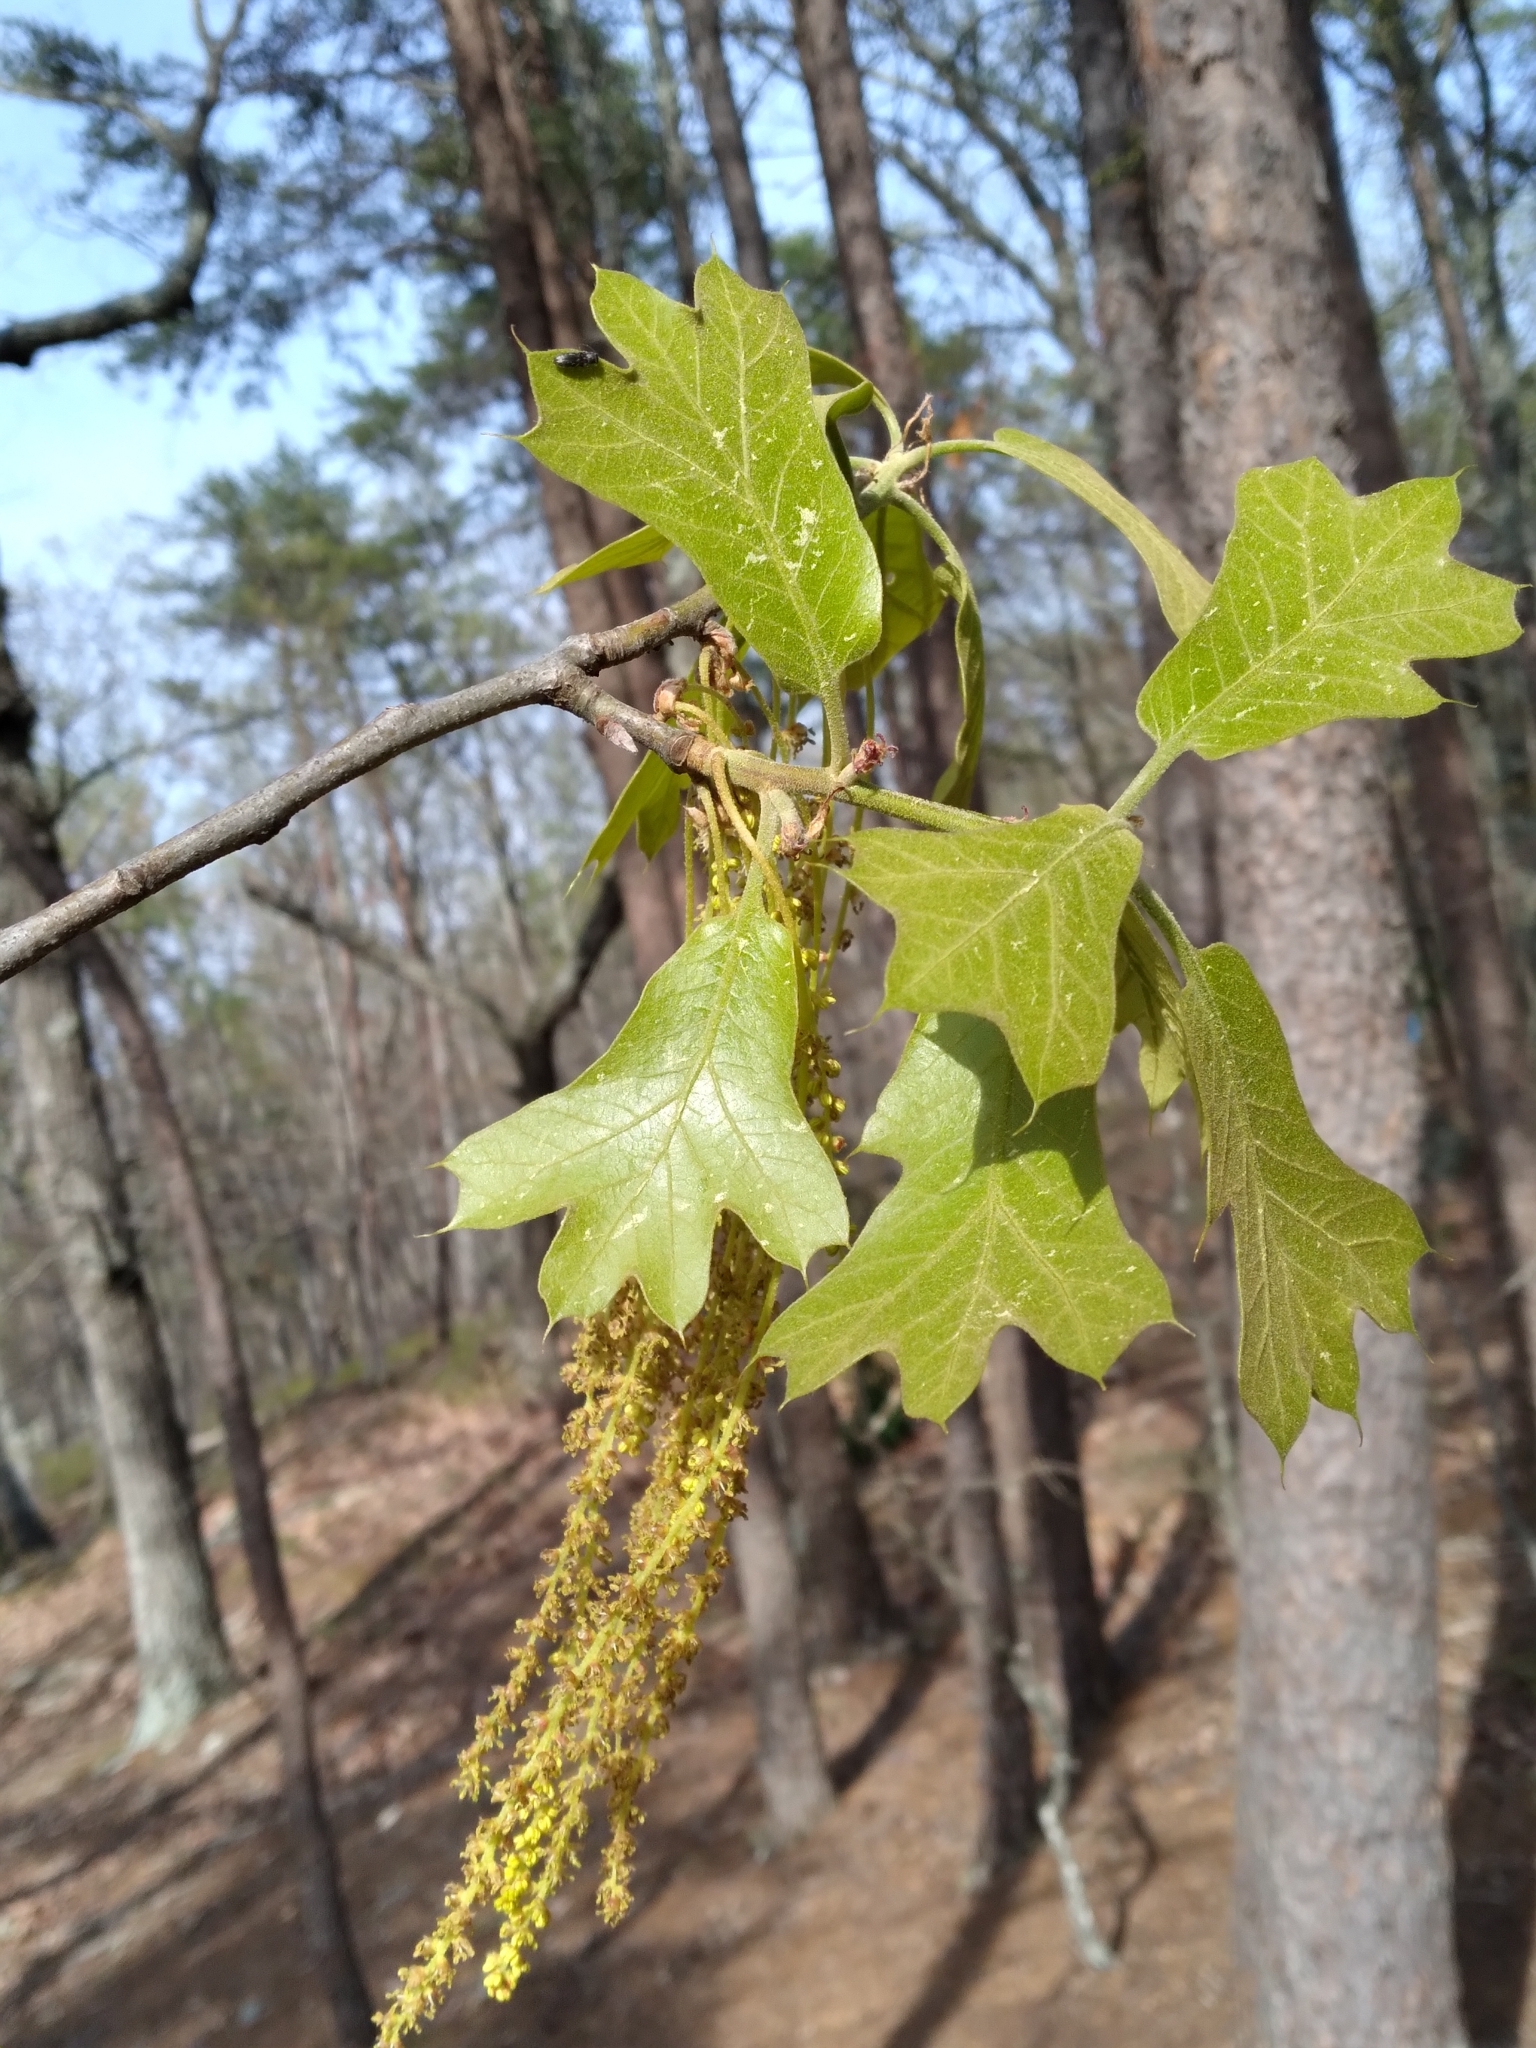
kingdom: Plantae
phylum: Tracheophyta
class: Magnoliopsida
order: Fagales
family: Fagaceae
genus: Quercus
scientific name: Quercus marilandica
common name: Blackjack oak
